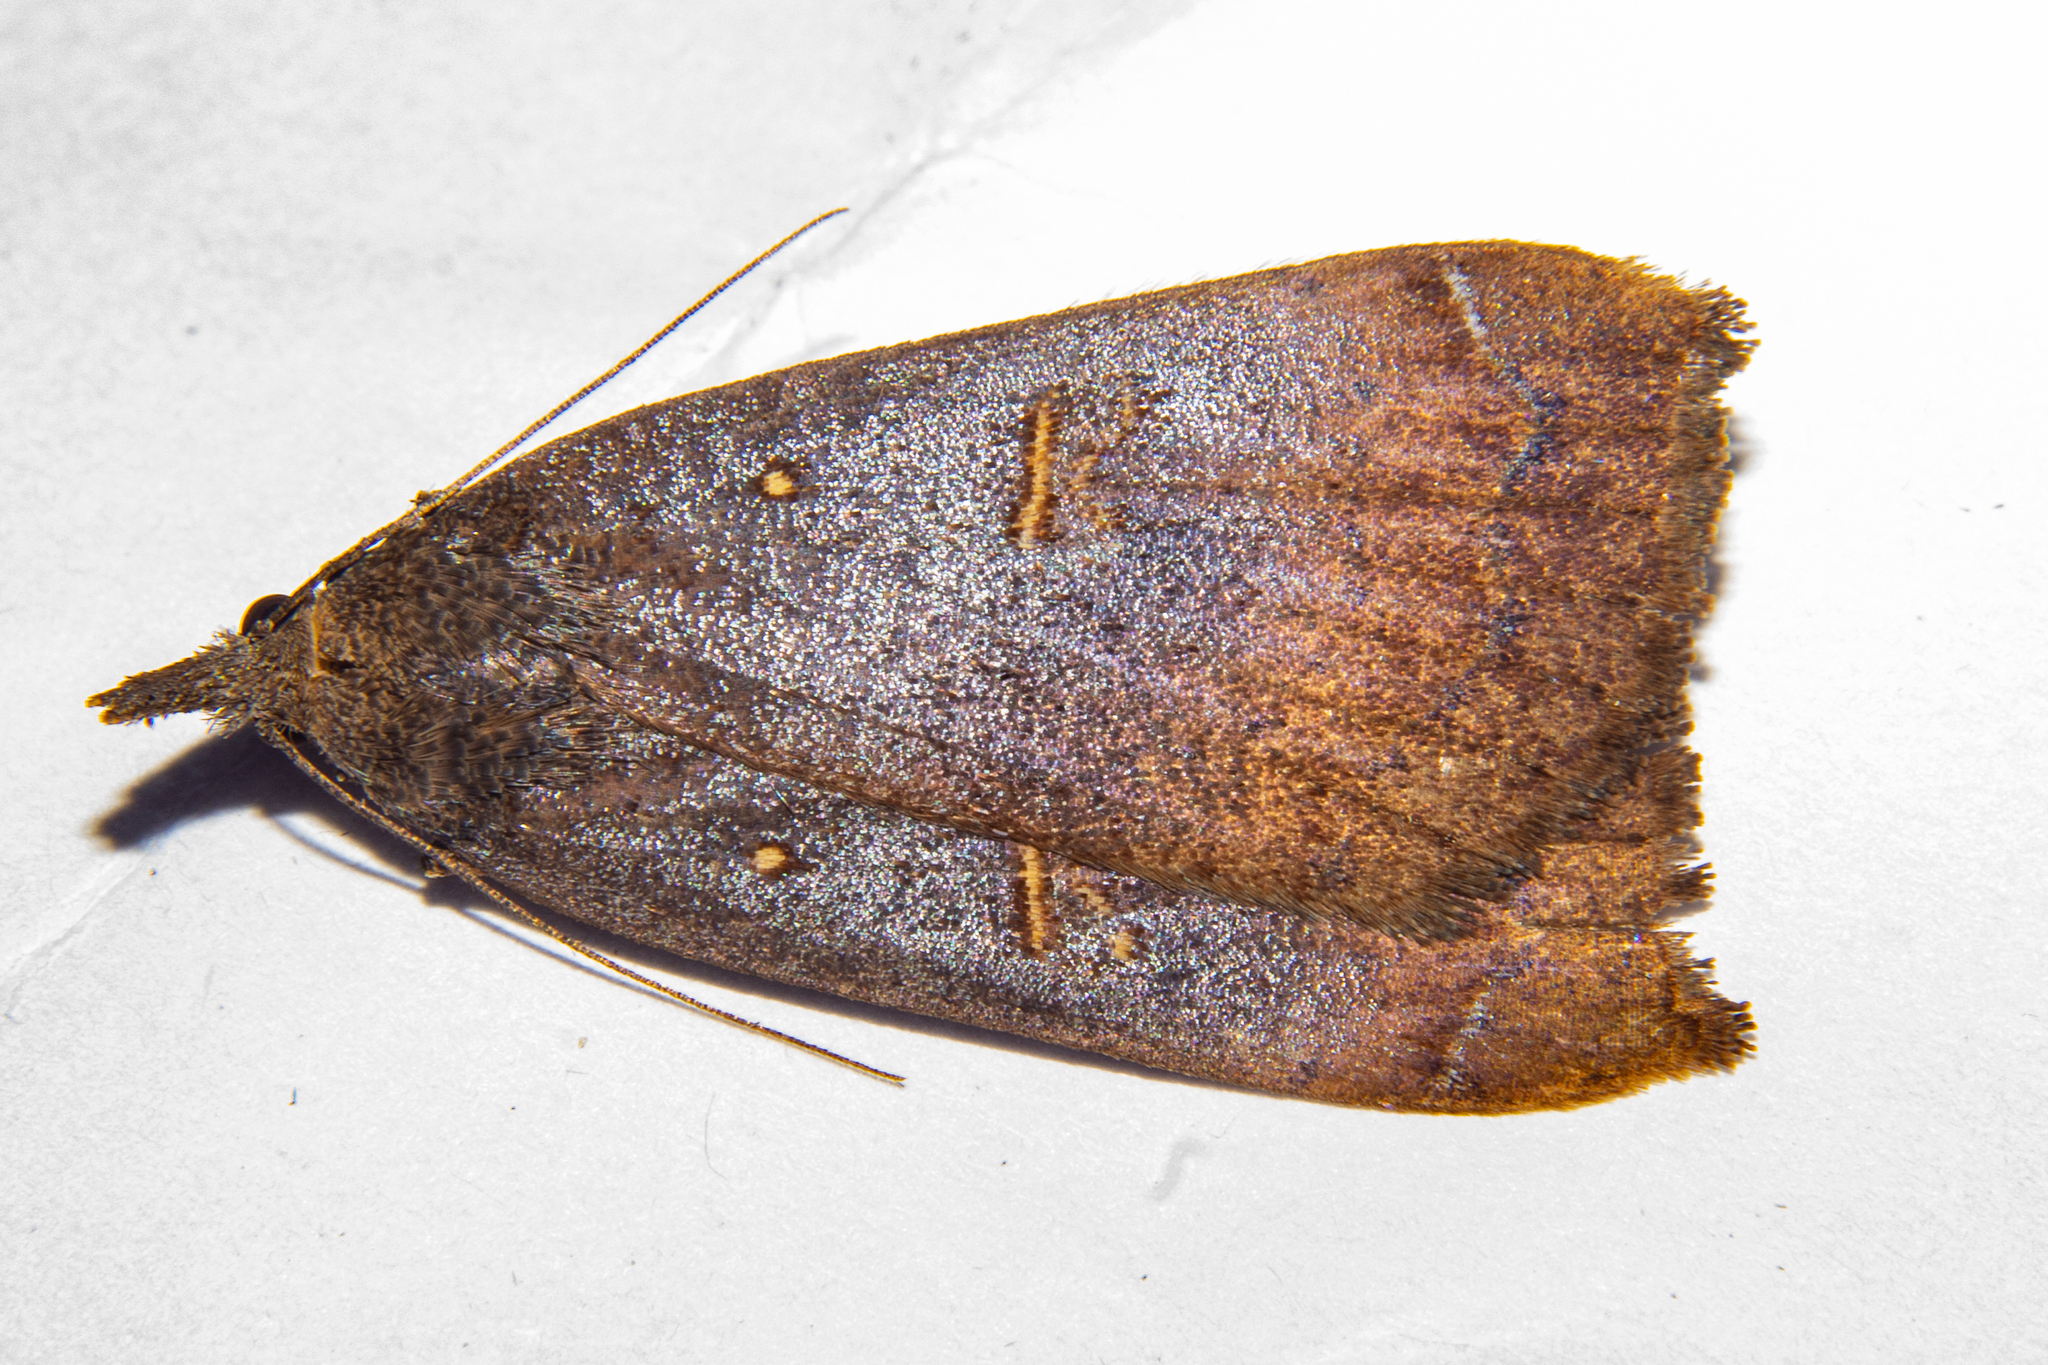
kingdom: Animalia
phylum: Arthropoda
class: Insecta
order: Lepidoptera
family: Erebidae
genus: Rhapsa
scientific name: Rhapsa scotosialis
